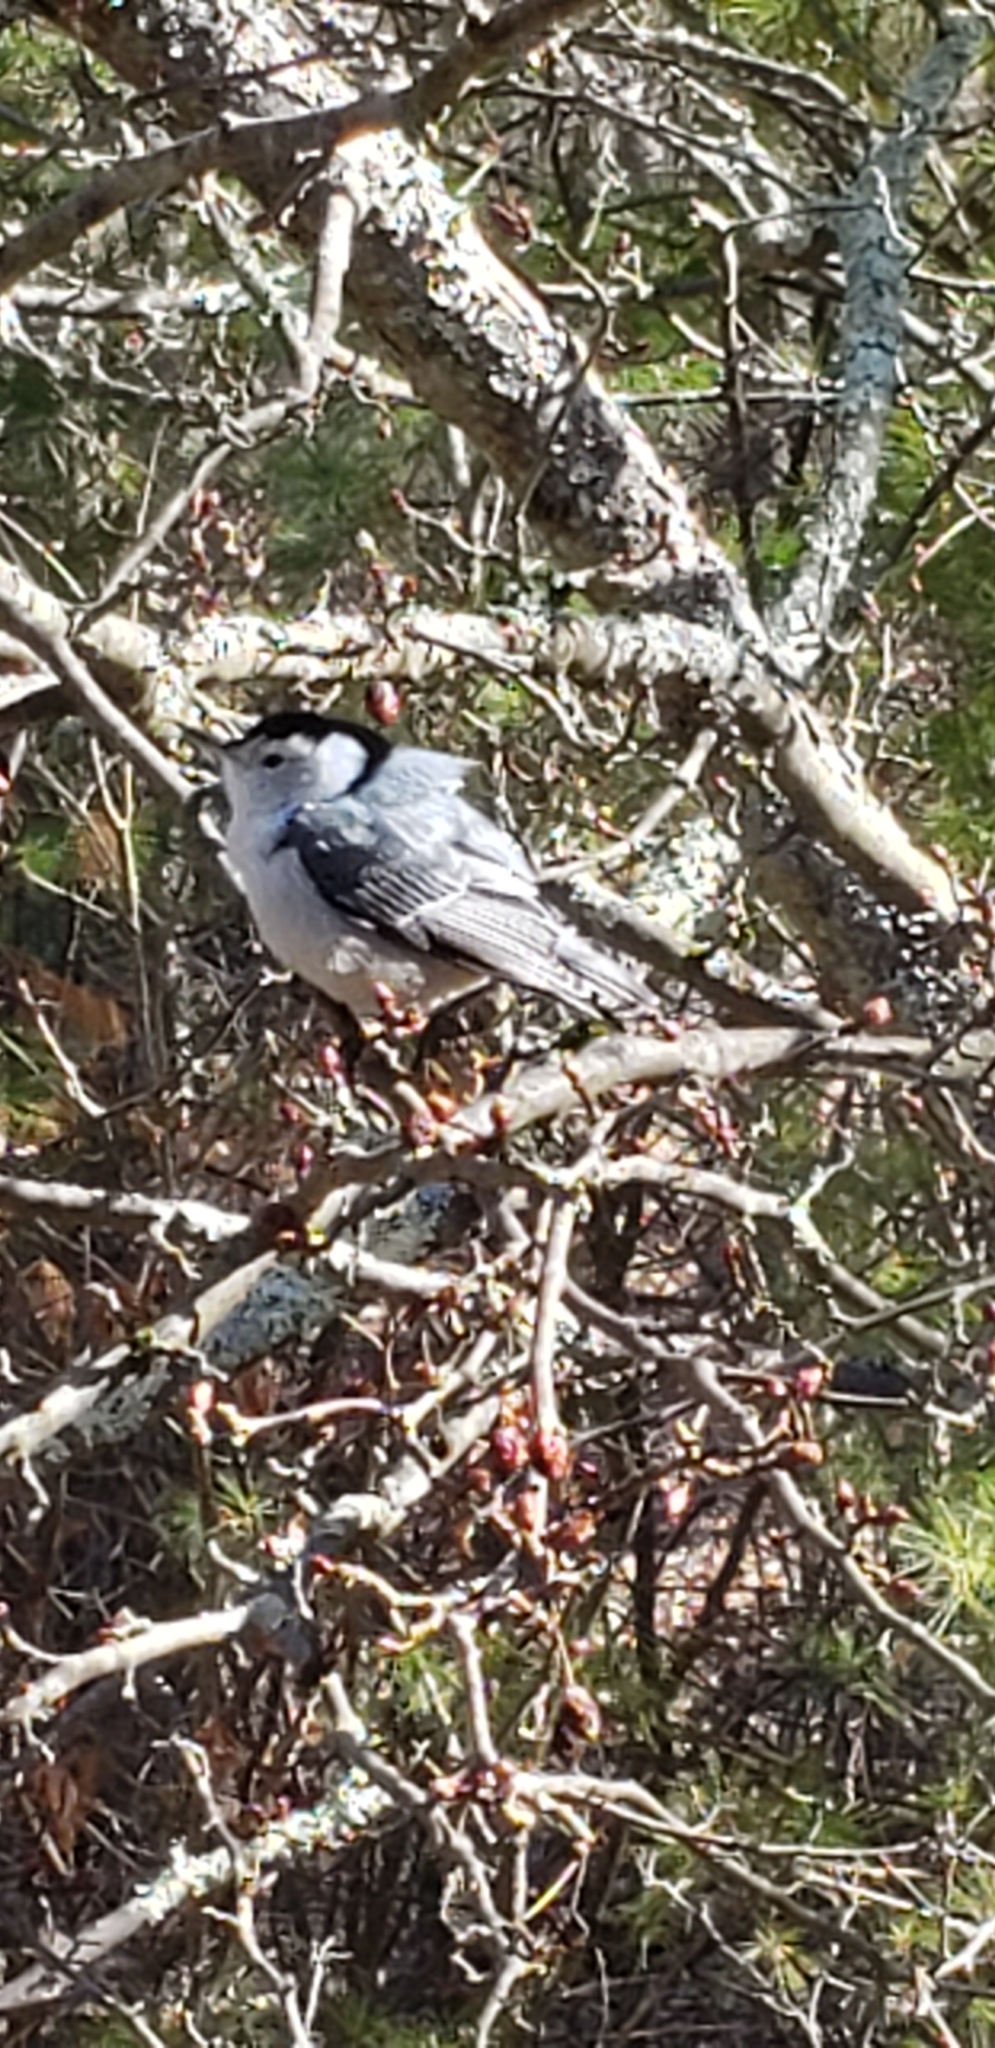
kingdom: Animalia
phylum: Chordata
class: Aves
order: Passeriformes
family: Sittidae
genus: Sitta
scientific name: Sitta carolinensis
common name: White-breasted nuthatch
